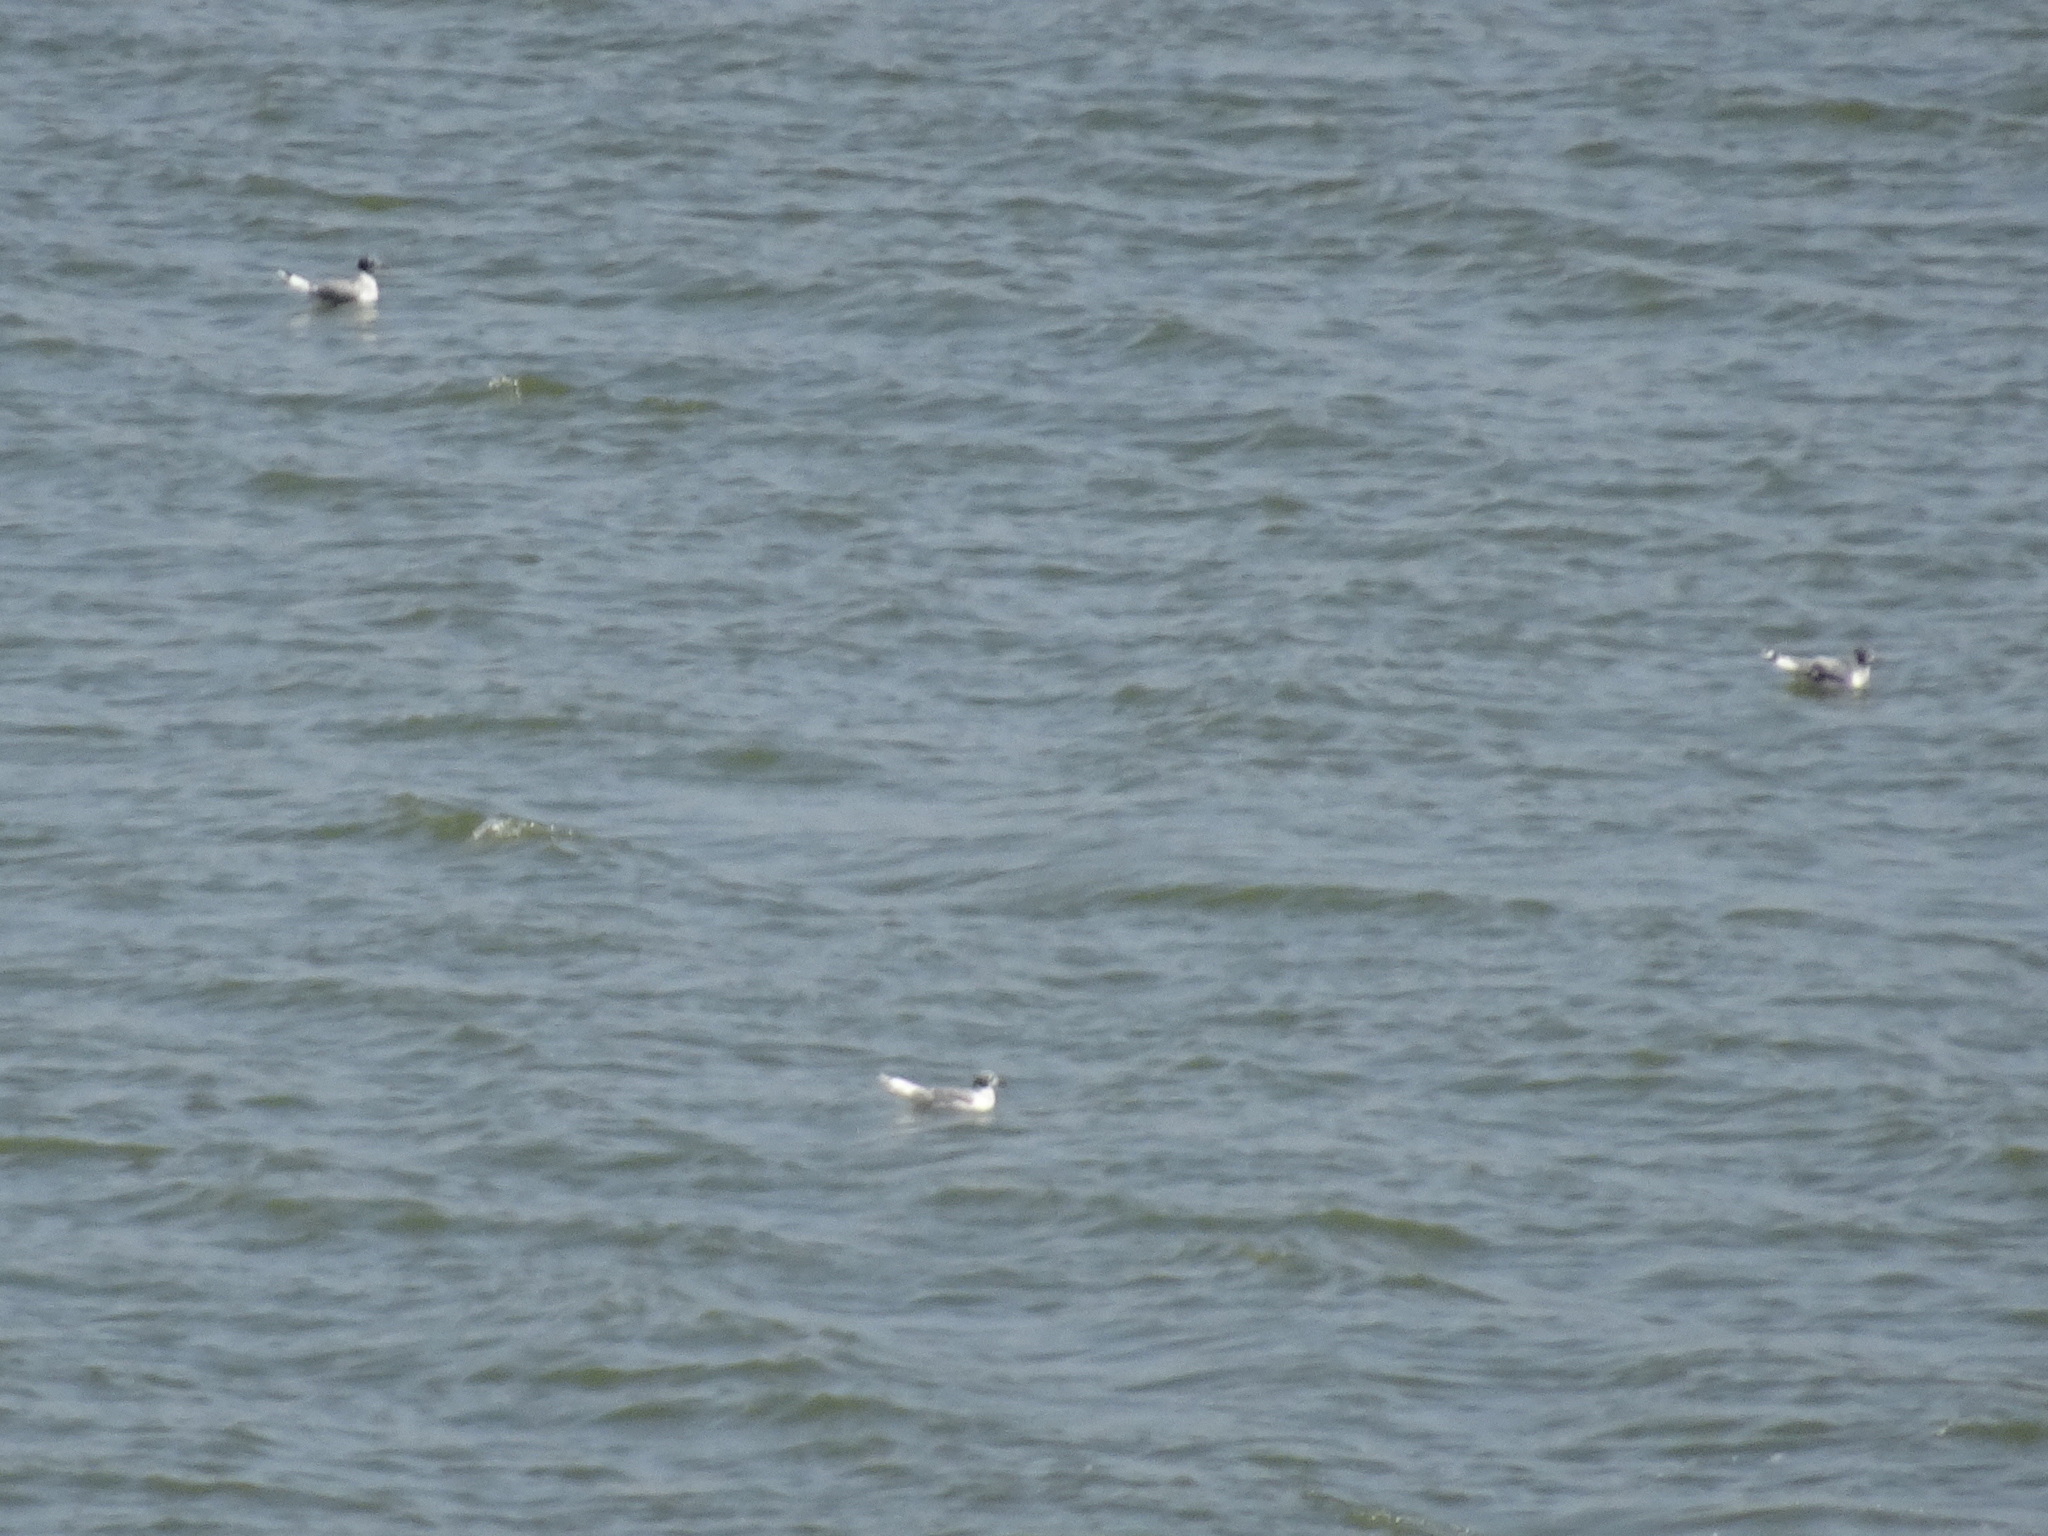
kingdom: Animalia
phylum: Chordata
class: Aves
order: Charadriiformes
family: Laridae
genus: Leucophaeus
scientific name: Leucophaeus pipixcan
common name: Franklin's gull
